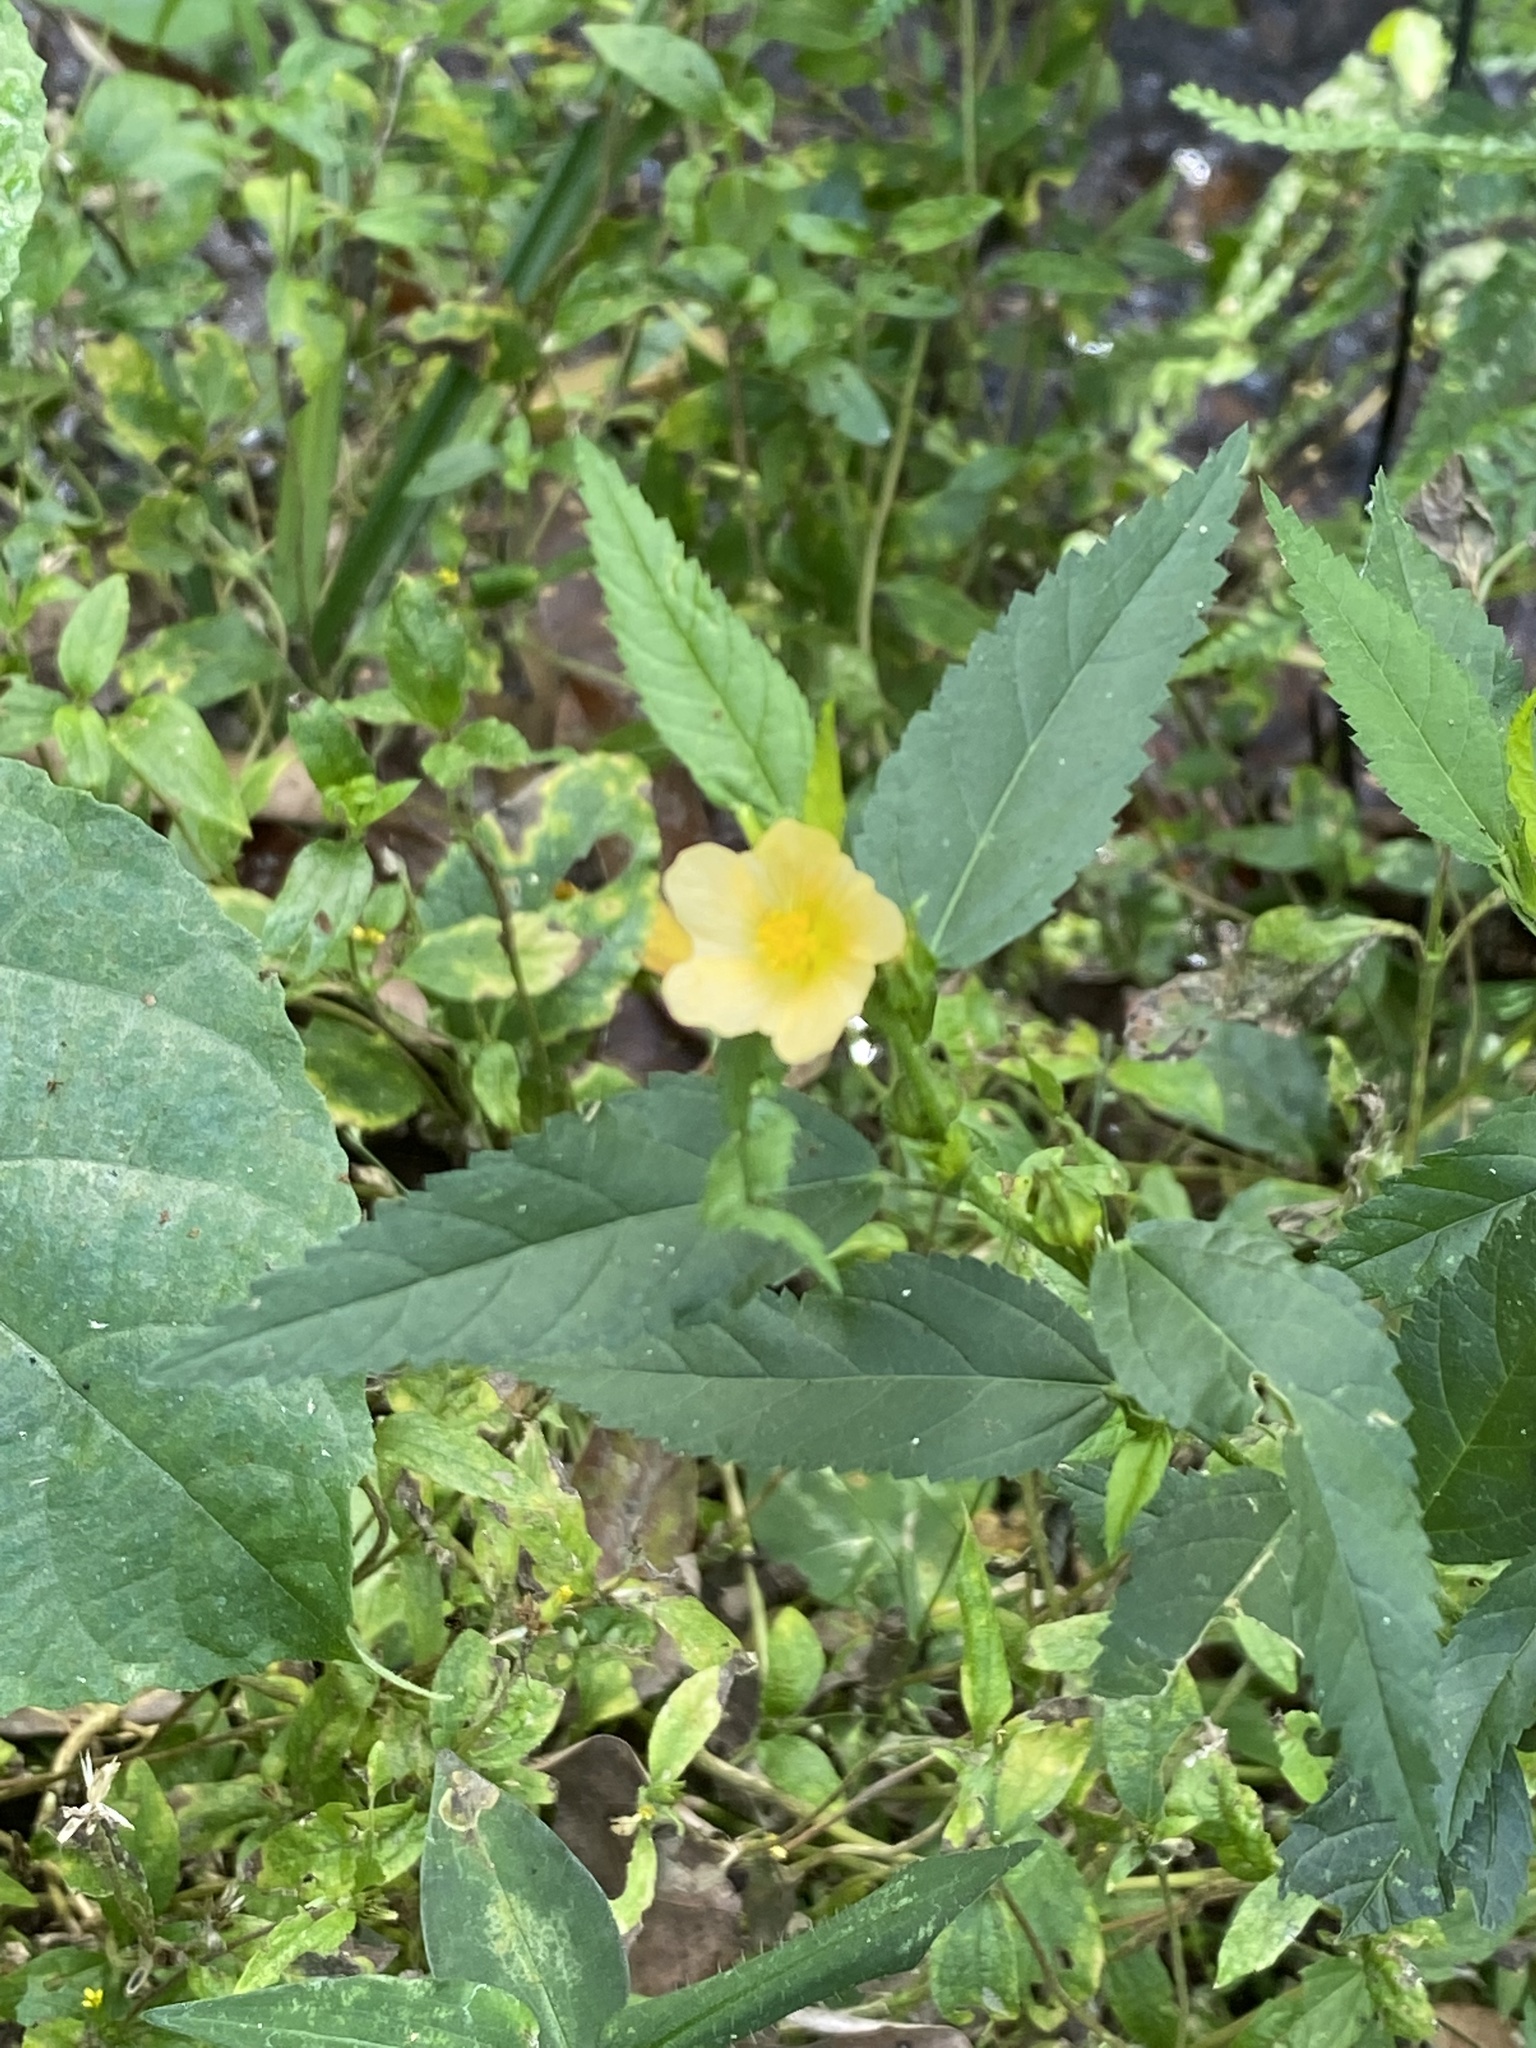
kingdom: Plantae
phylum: Tracheophyta
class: Magnoliopsida
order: Malvales
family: Malvaceae
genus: Sida
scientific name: Sida acuta
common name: Common wireweed
